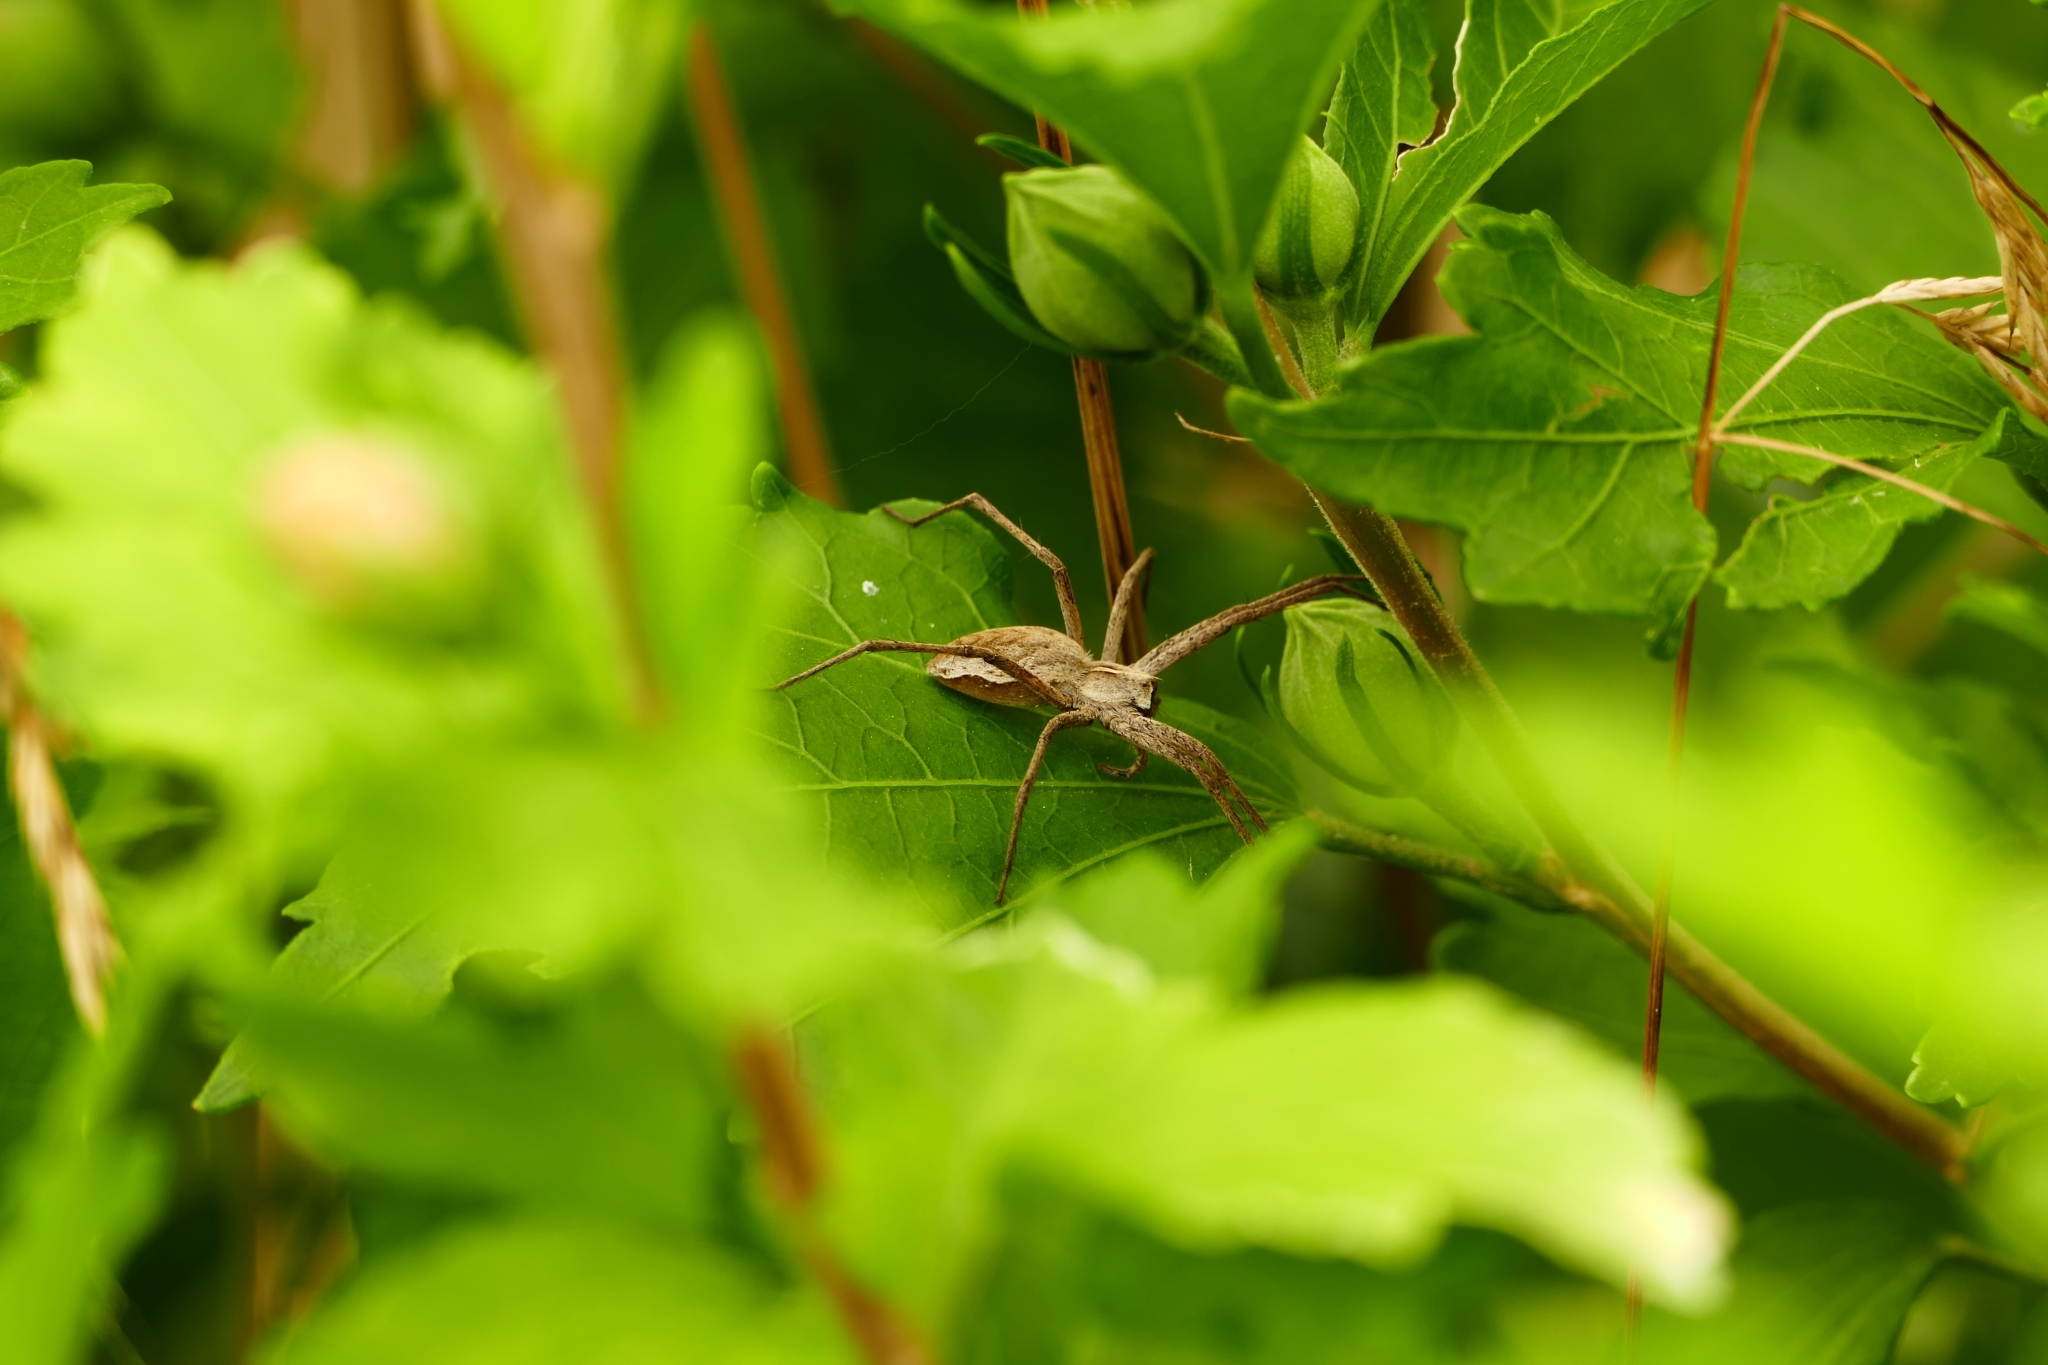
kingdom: Animalia
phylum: Arthropoda
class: Arachnida
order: Araneae
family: Pisauridae
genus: Pisaura
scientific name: Pisaura mirabilis
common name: Tent spider
